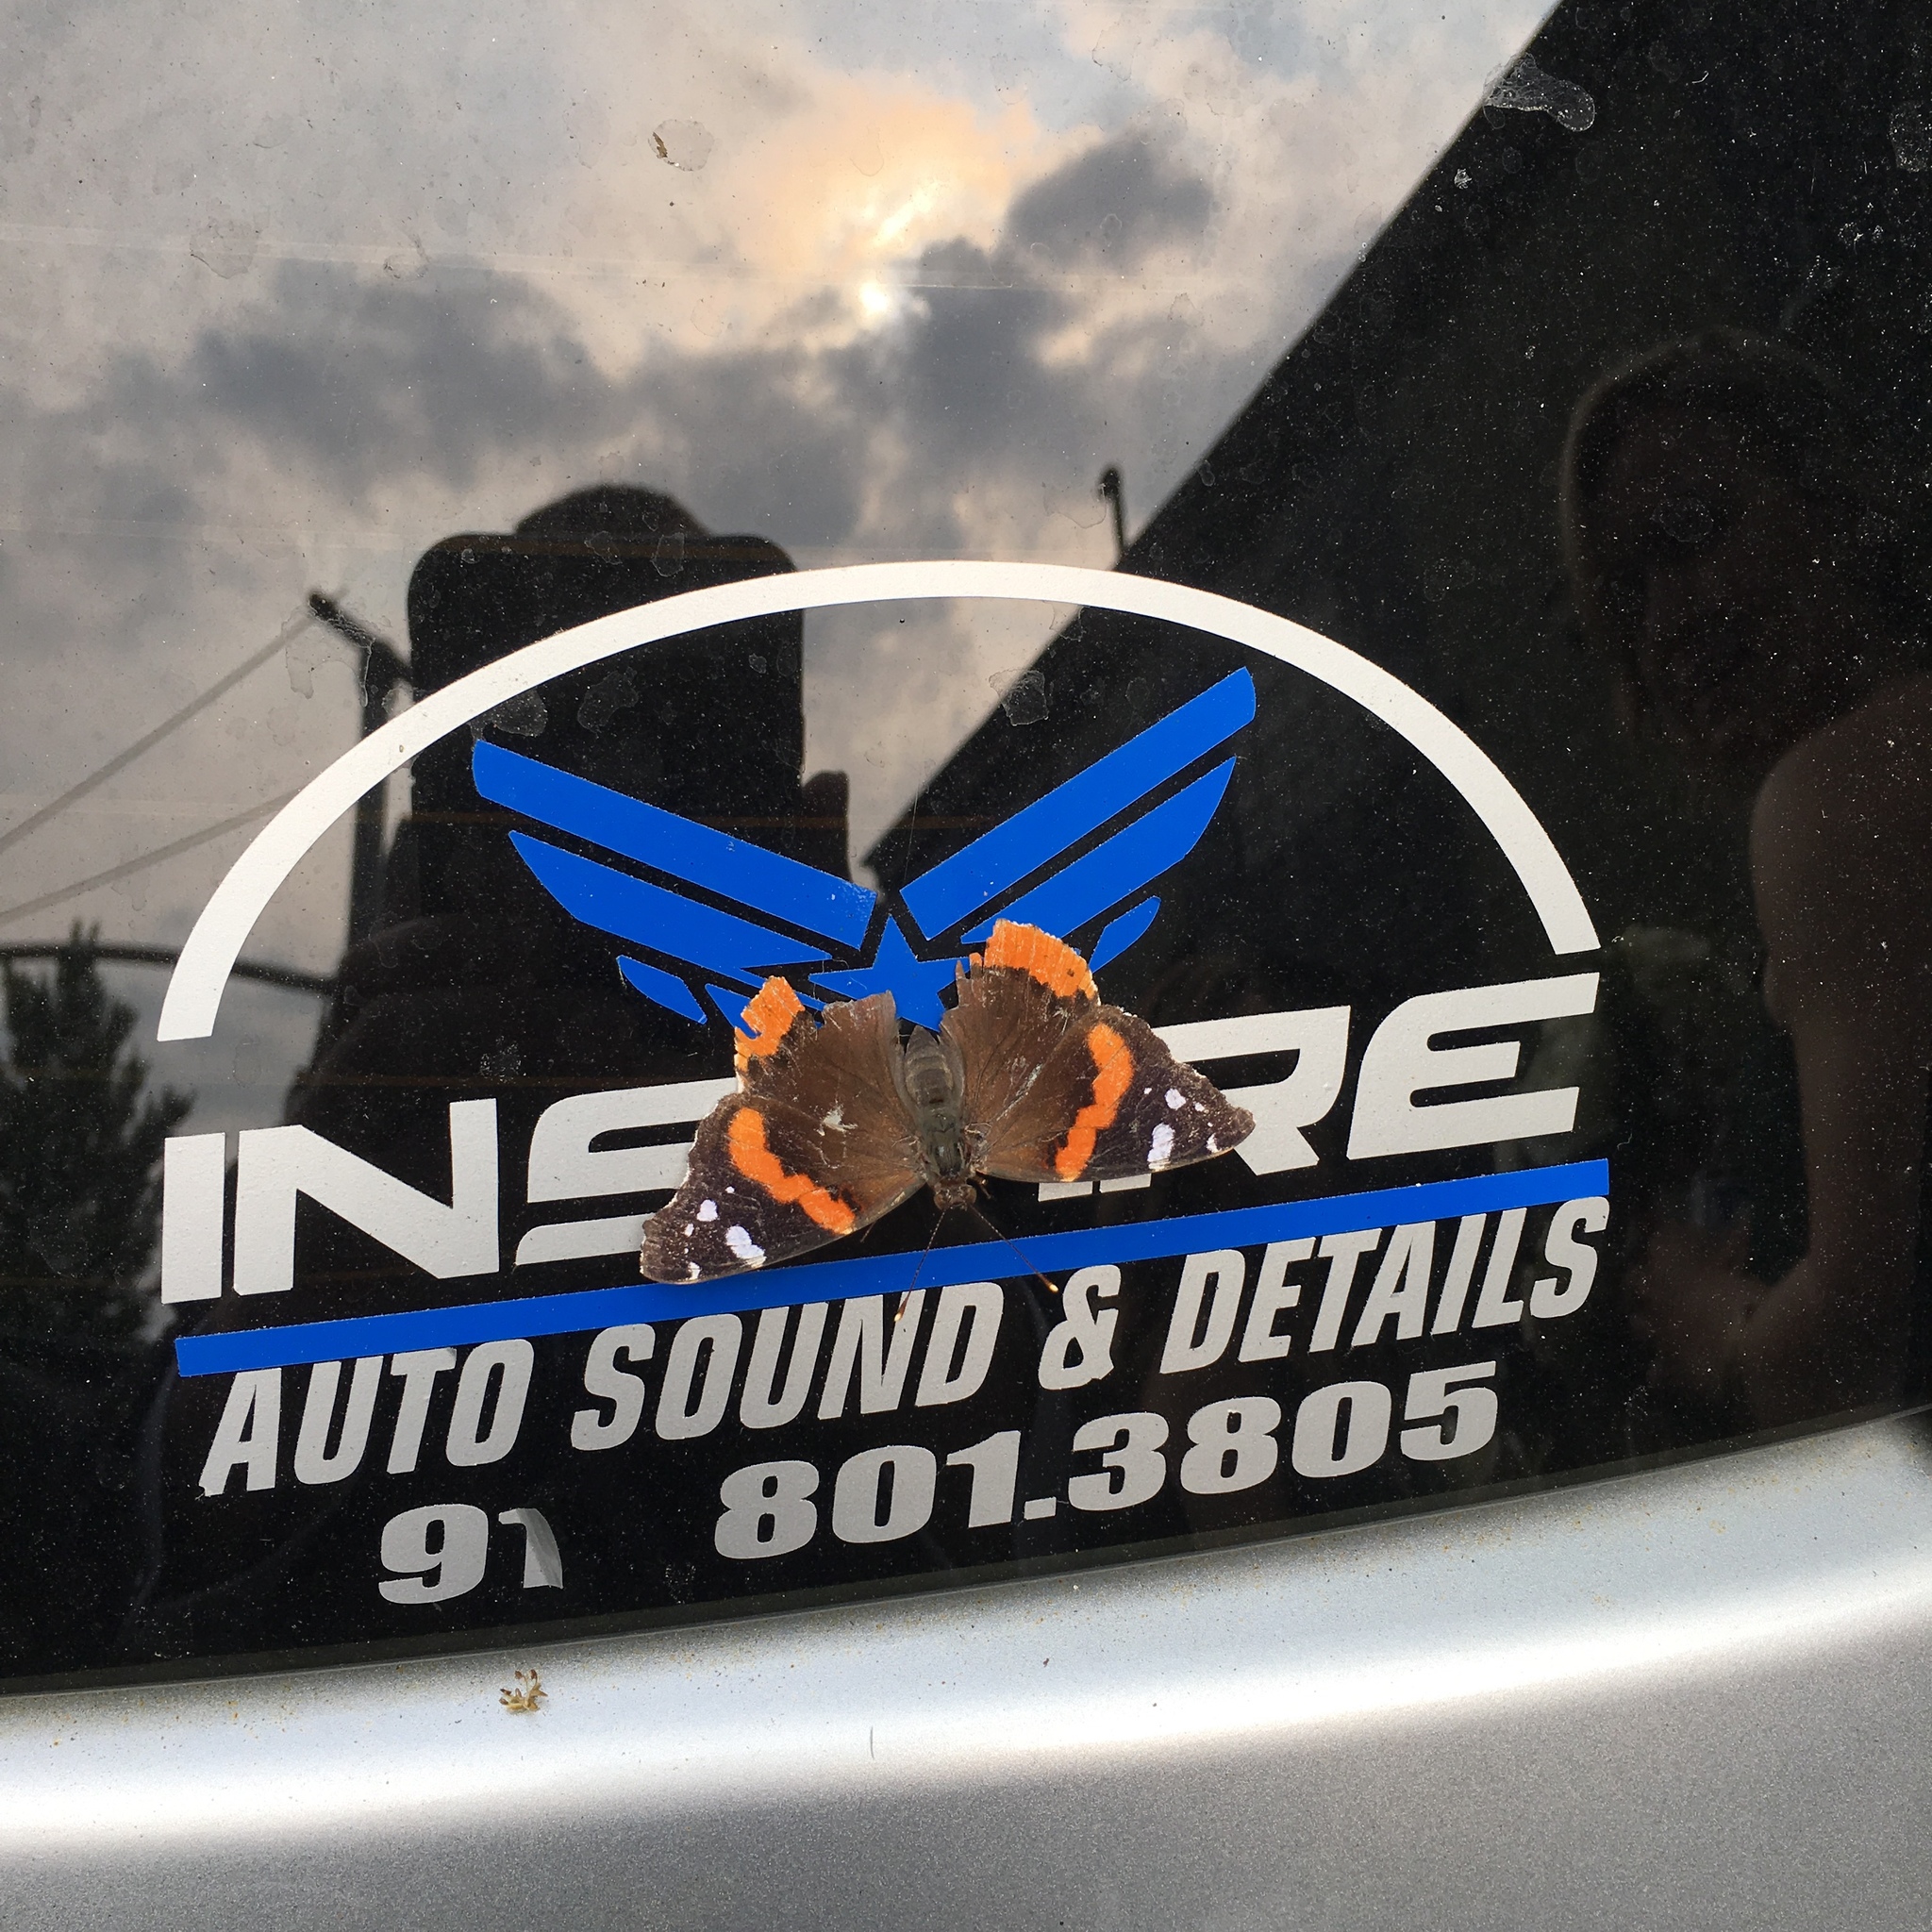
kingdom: Animalia
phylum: Arthropoda
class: Insecta
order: Lepidoptera
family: Nymphalidae
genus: Vanessa
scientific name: Vanessa atalanta
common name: Red admiral
